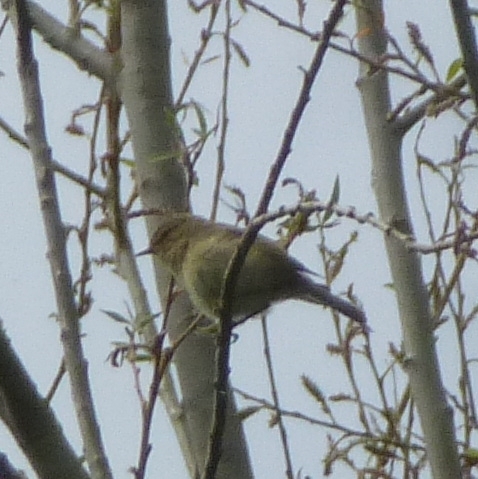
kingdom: Animalia
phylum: Chordata
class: Aves
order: Passeriformes
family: Phylloscopidae
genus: Phylloscopus
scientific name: Phylloscopus collybita
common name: Common chiffchaff
